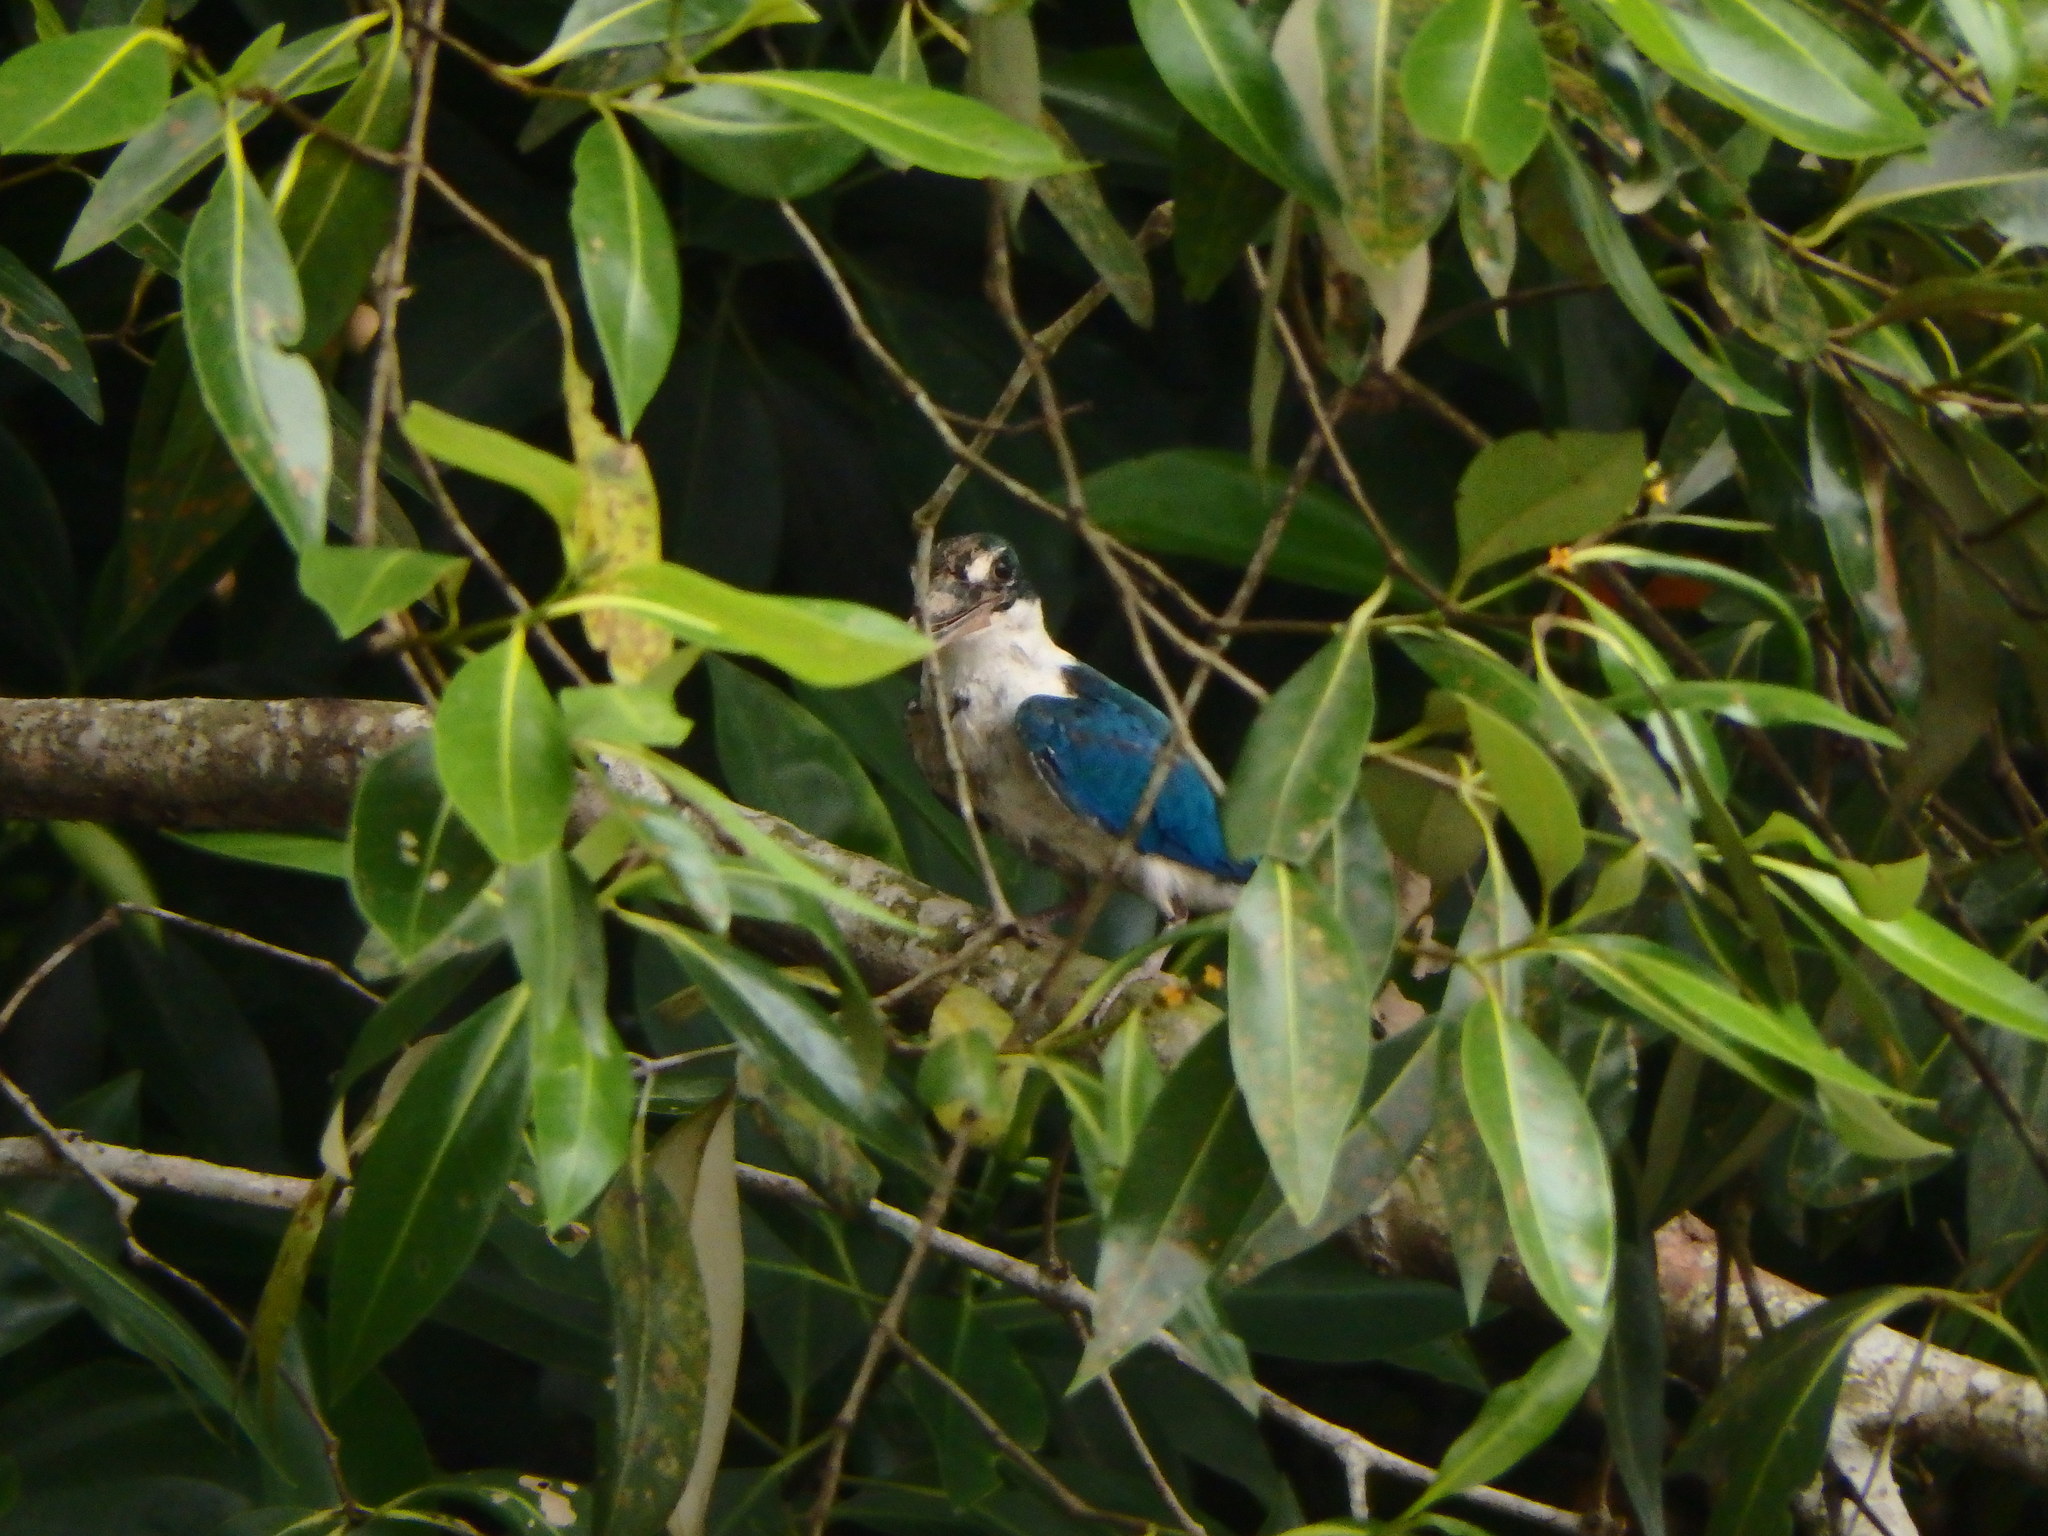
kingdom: Animalia
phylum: Chordata
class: Aves
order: Coraciiformes
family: Alcedinidae
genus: Todiramphus
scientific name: Todiramphus chloris
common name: Collared kingfisher
